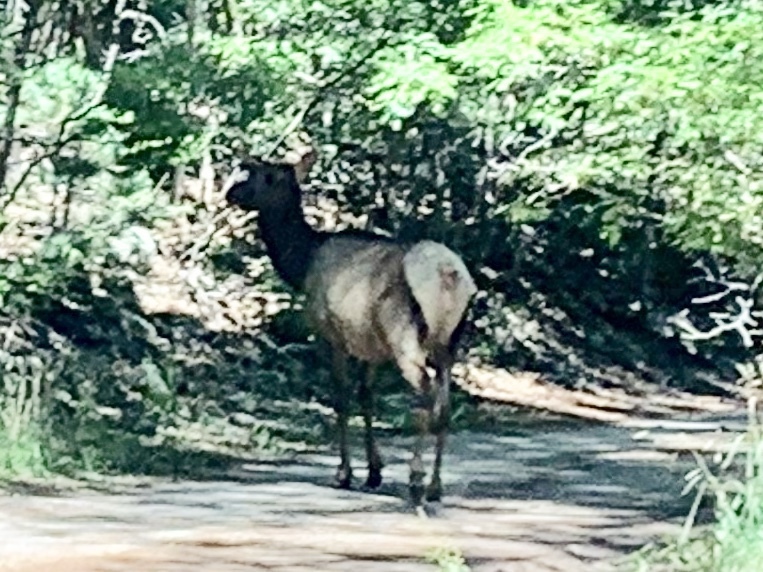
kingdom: Animalia
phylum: Chordata
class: Mammalia
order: Artiodactyla
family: Cervidae
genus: Cervus
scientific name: Cervus elaphus
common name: Red deer
